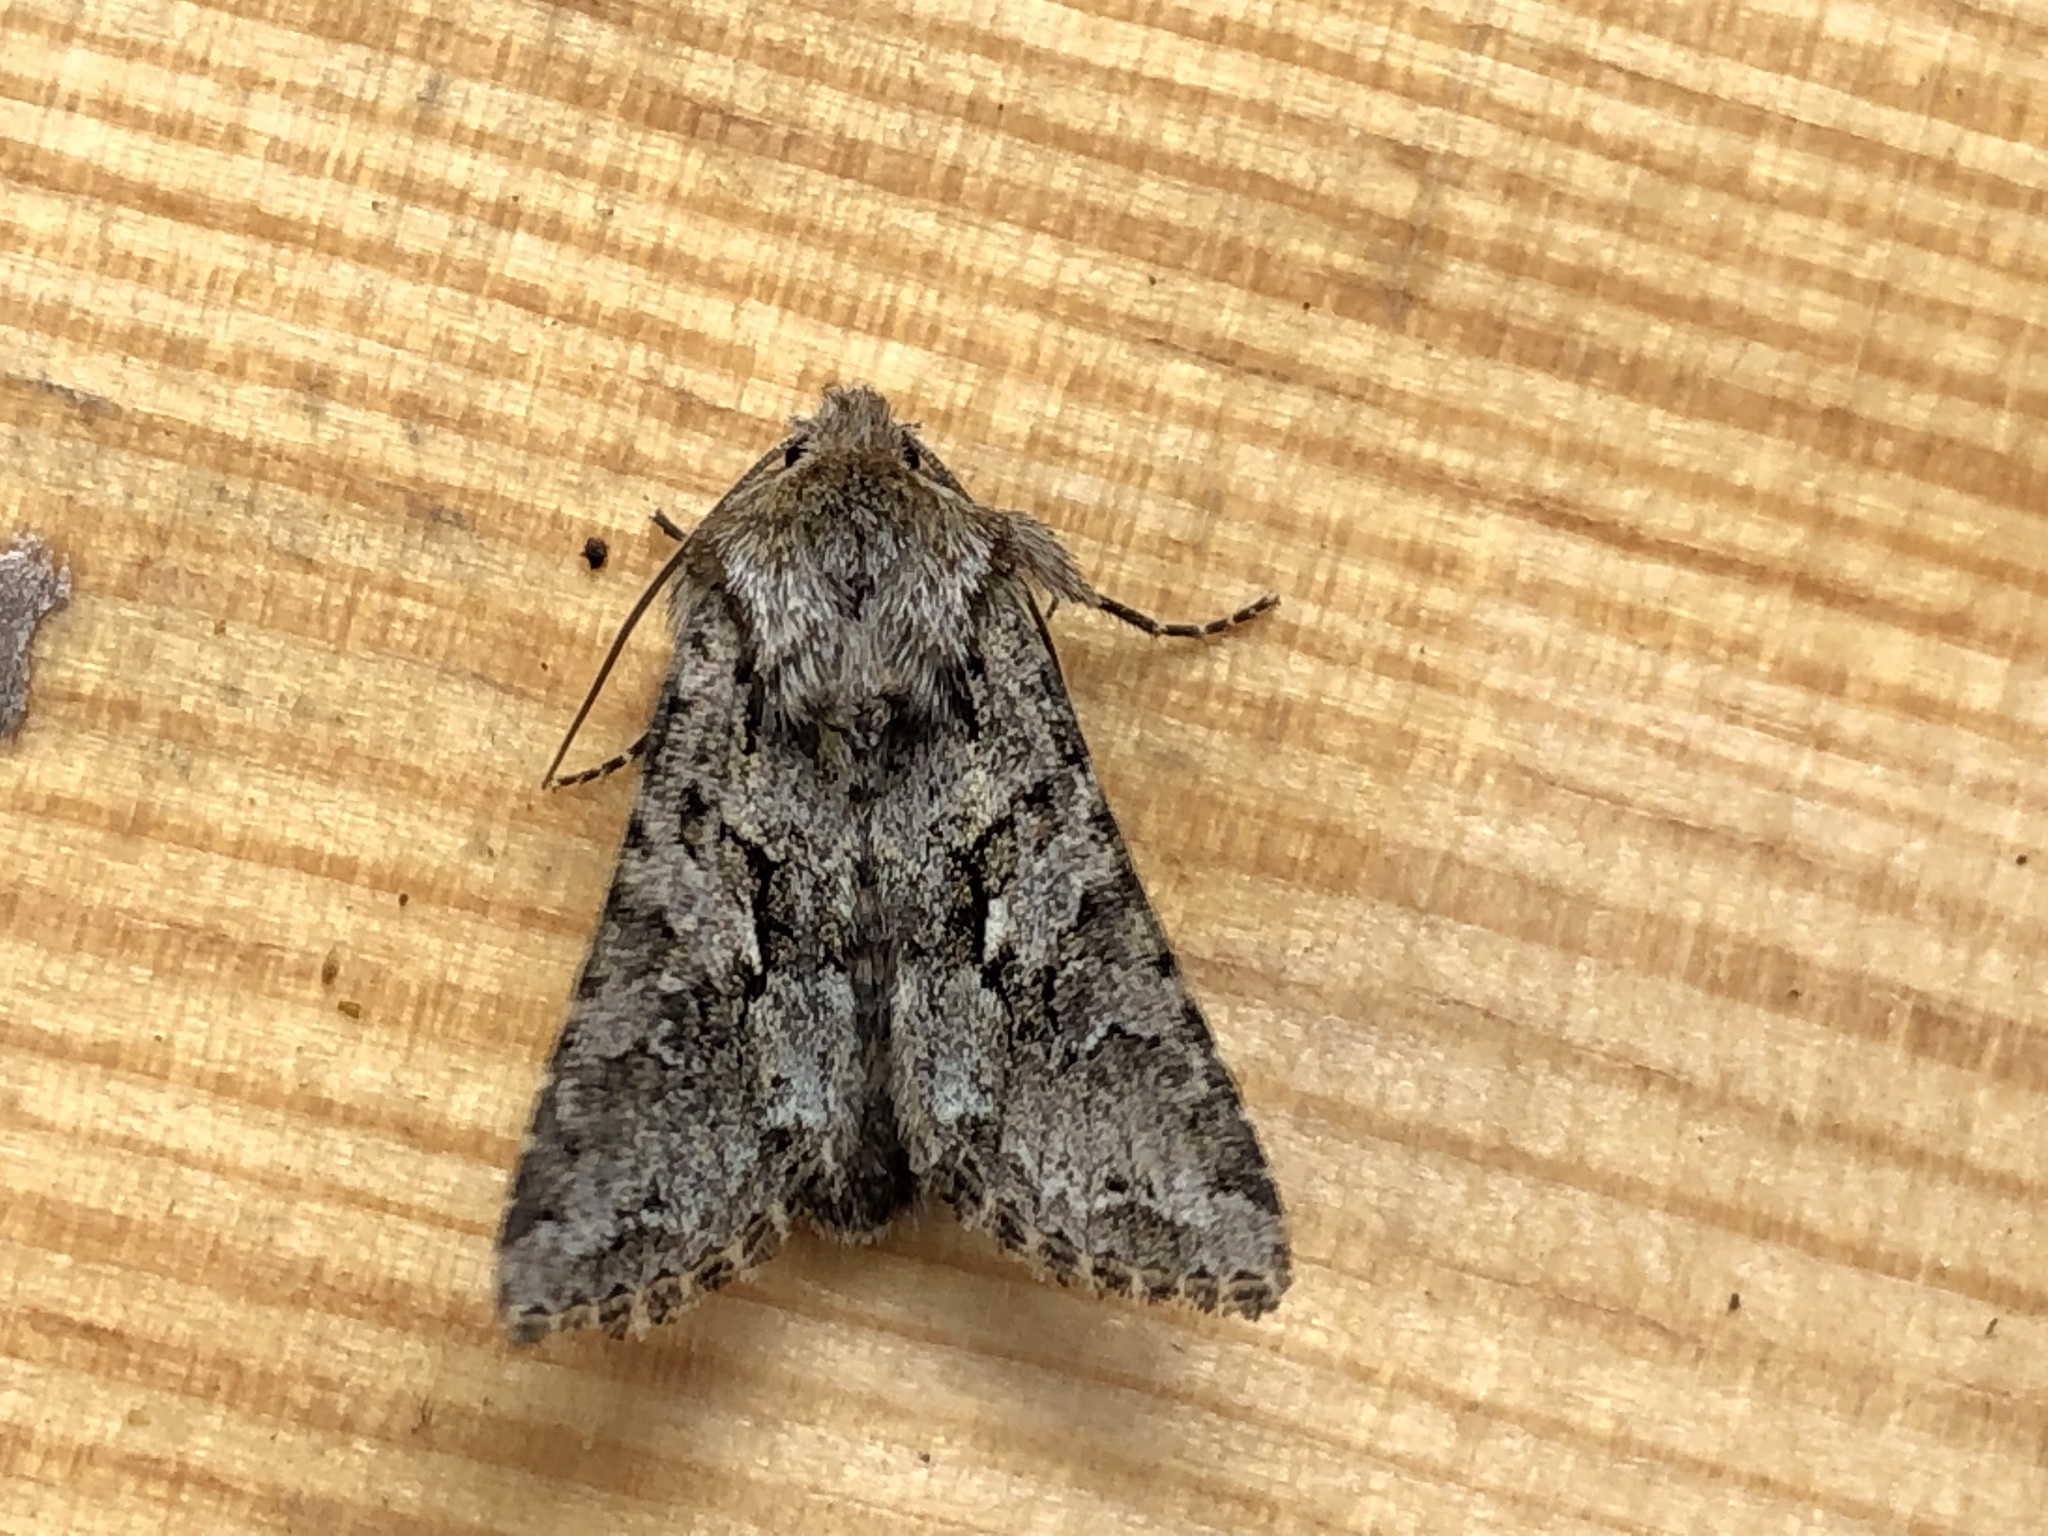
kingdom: Animalia
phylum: Arthropoda
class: Insecta
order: Lepidoptera
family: Noctuidae
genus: Hada
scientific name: Hada plebeja
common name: Shears
